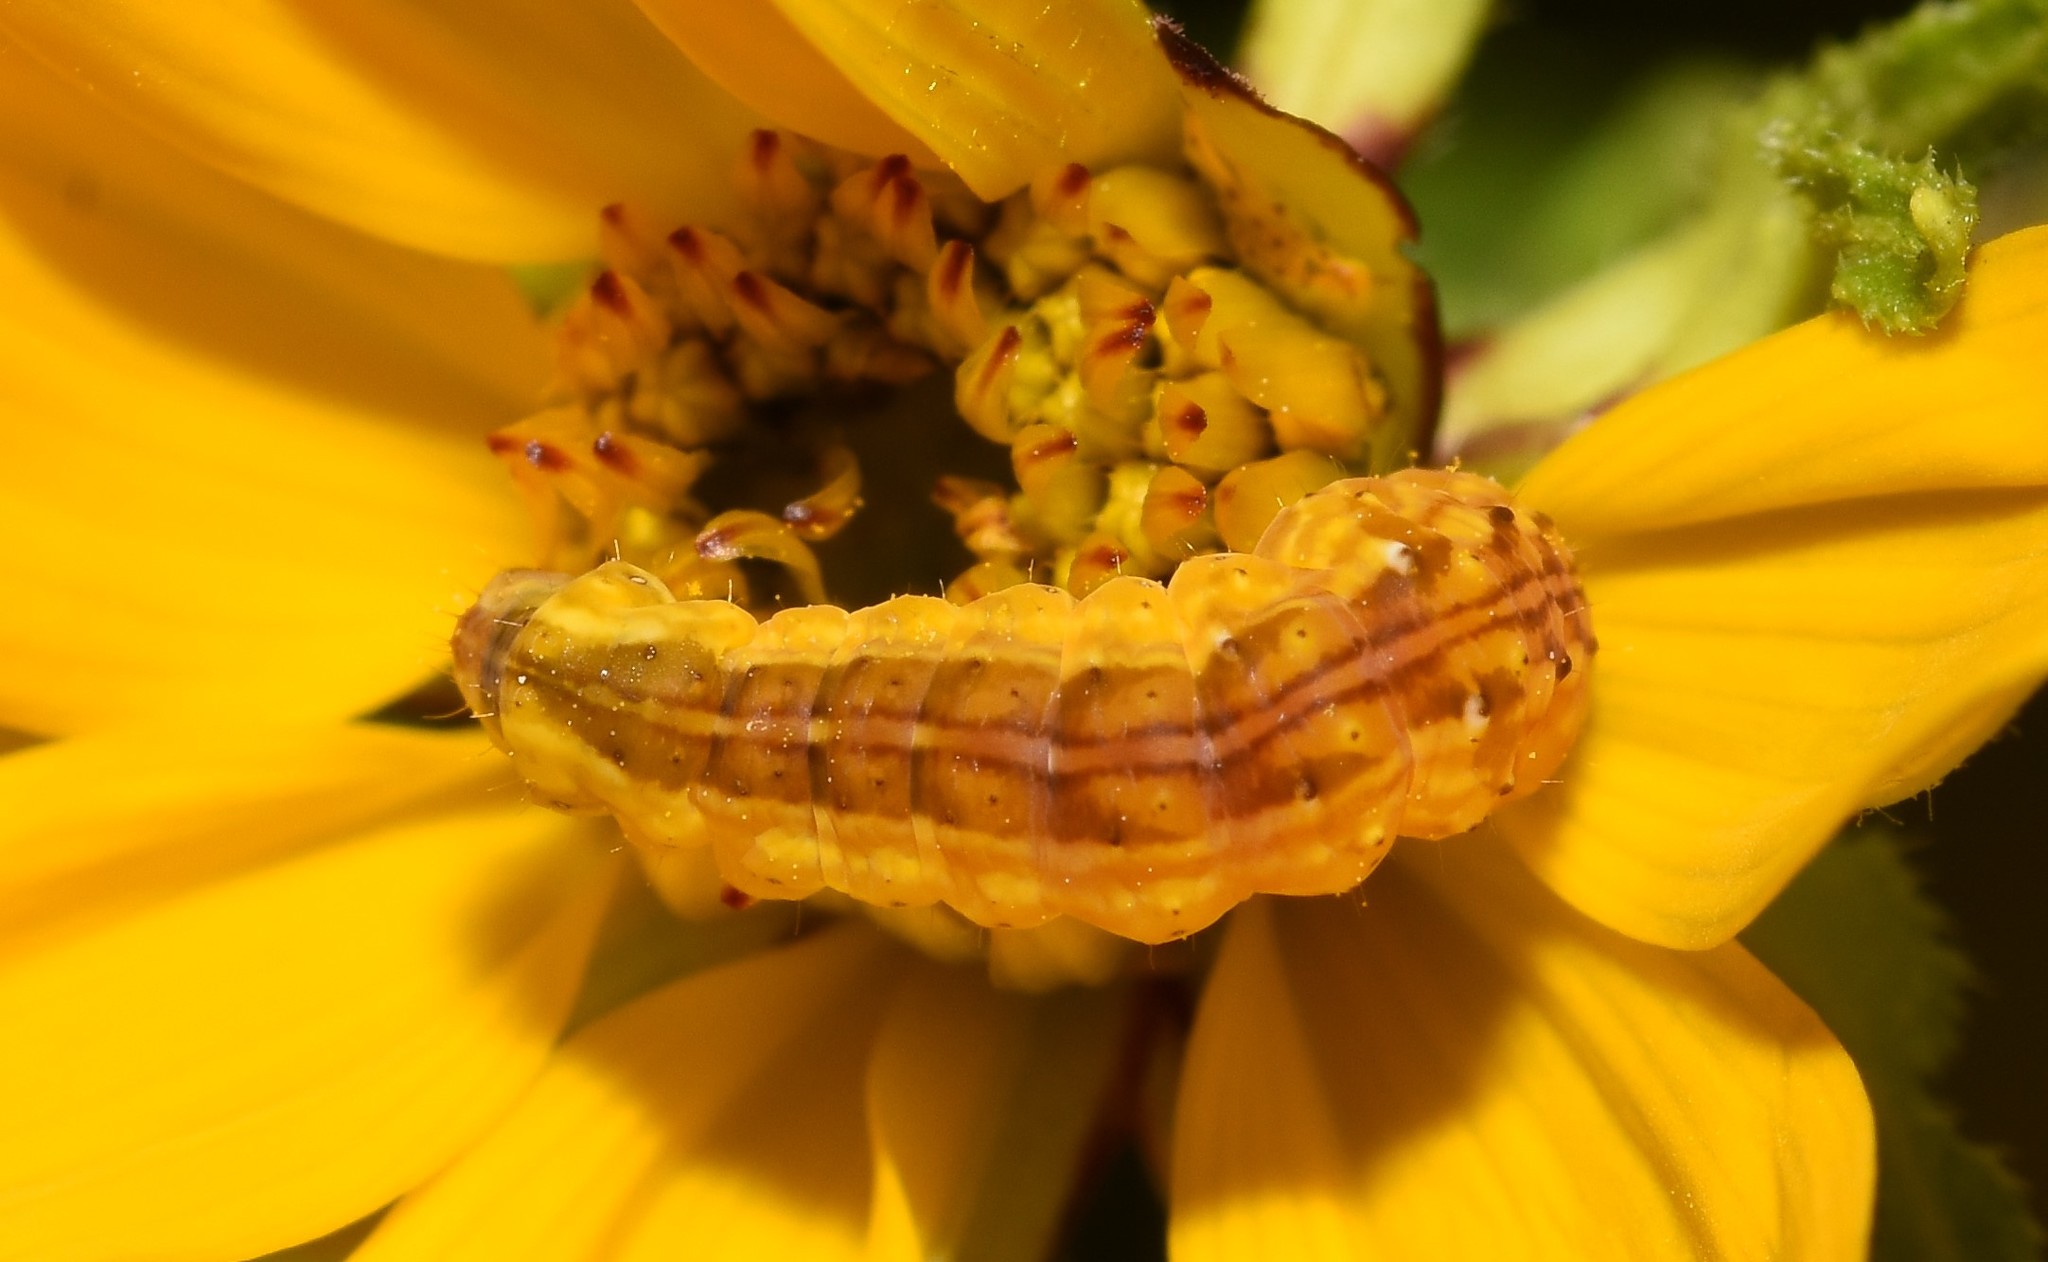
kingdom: Animalia
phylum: Arthropoda
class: Insecta
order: Lepidoptera
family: Noctuidae
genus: Cirrhophanus
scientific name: Cirrhophanus triangulifer
